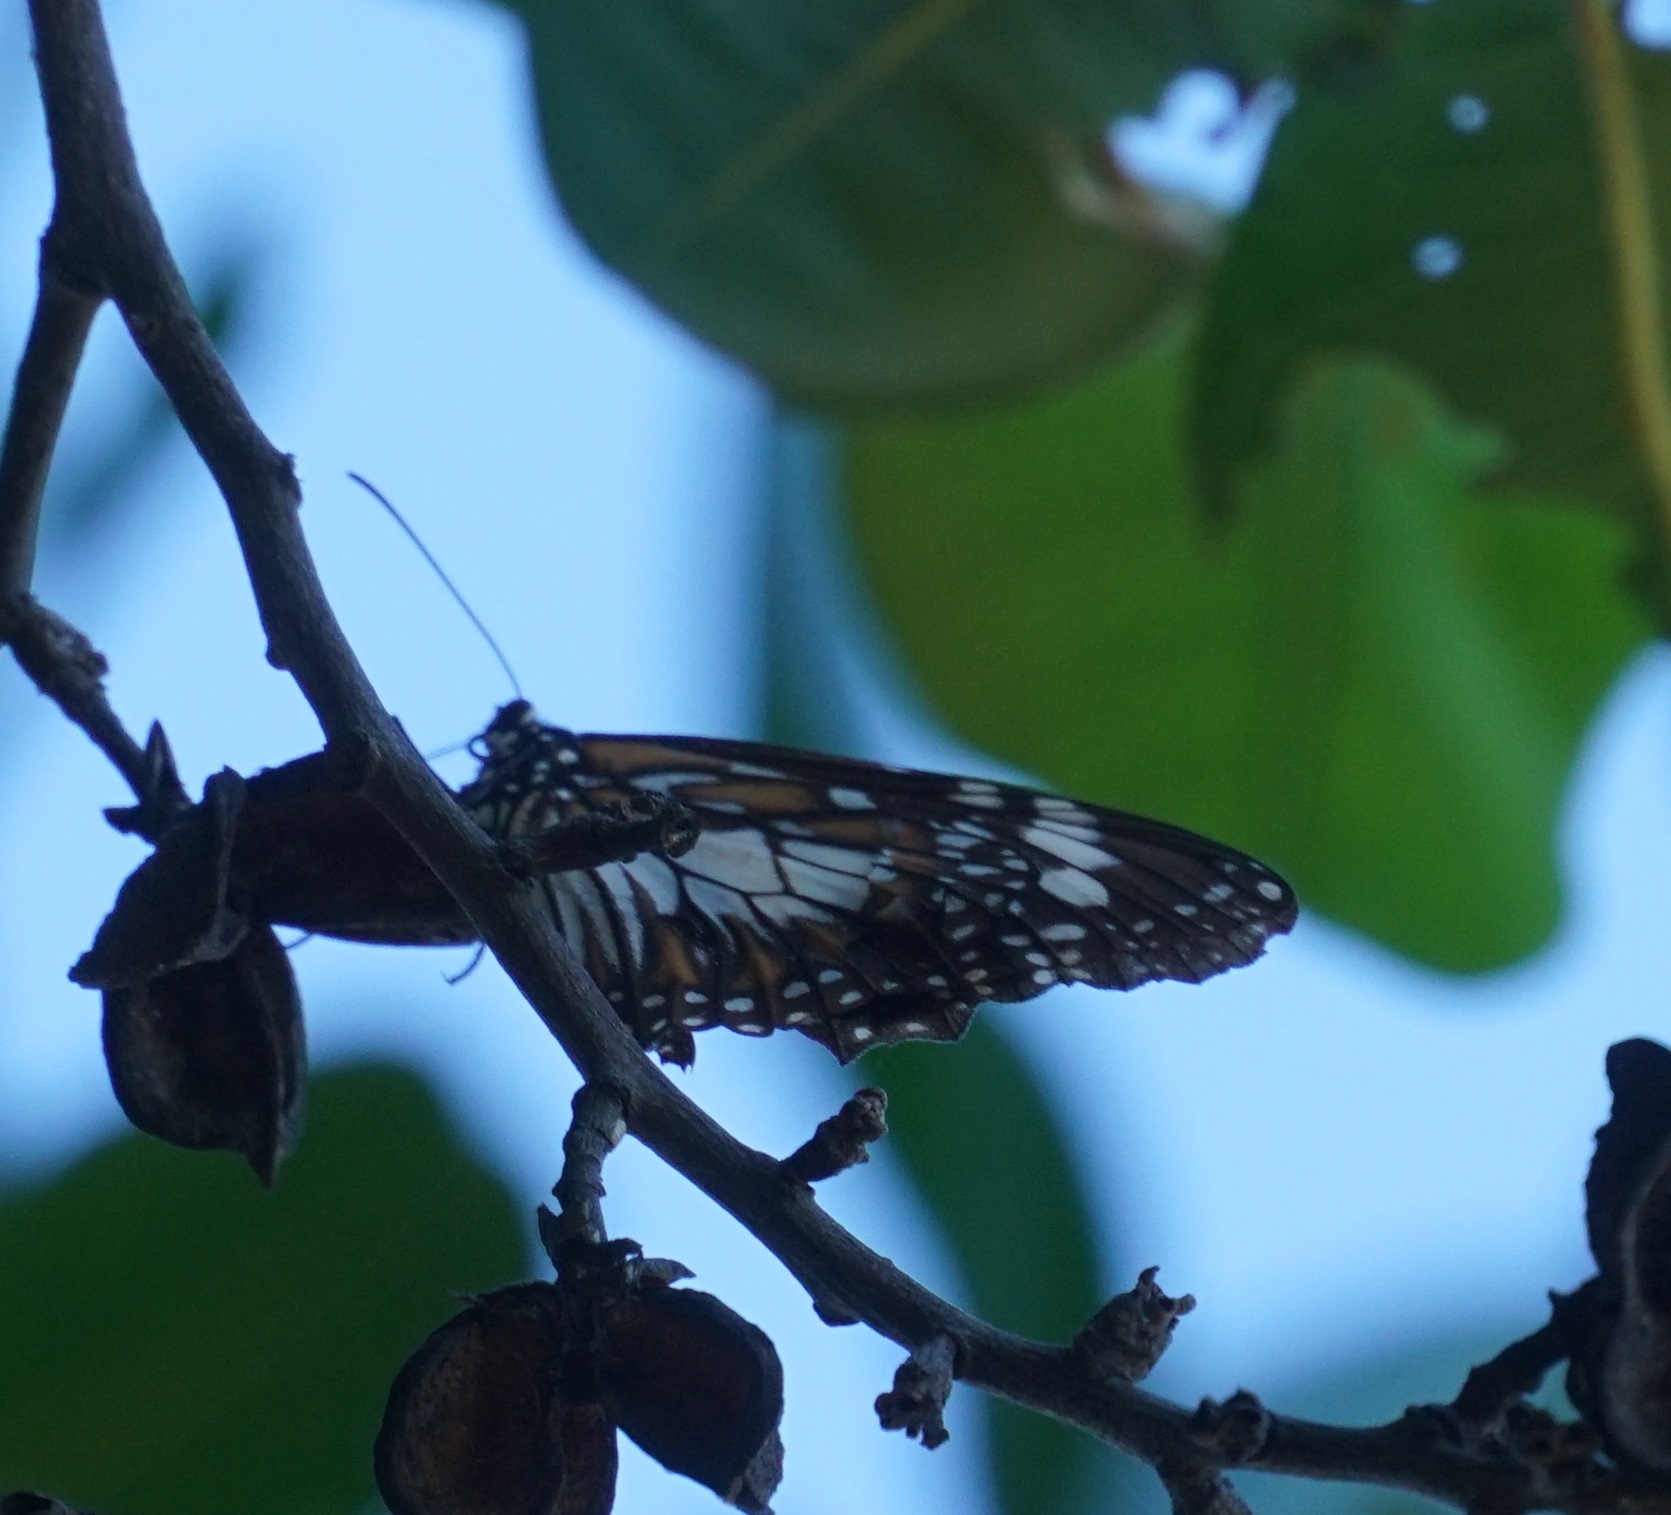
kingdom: Animalia
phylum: Arthropoda
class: Insecta
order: Lepidoptera
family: Nymphalidae
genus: Danaus
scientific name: Danaus affinis
